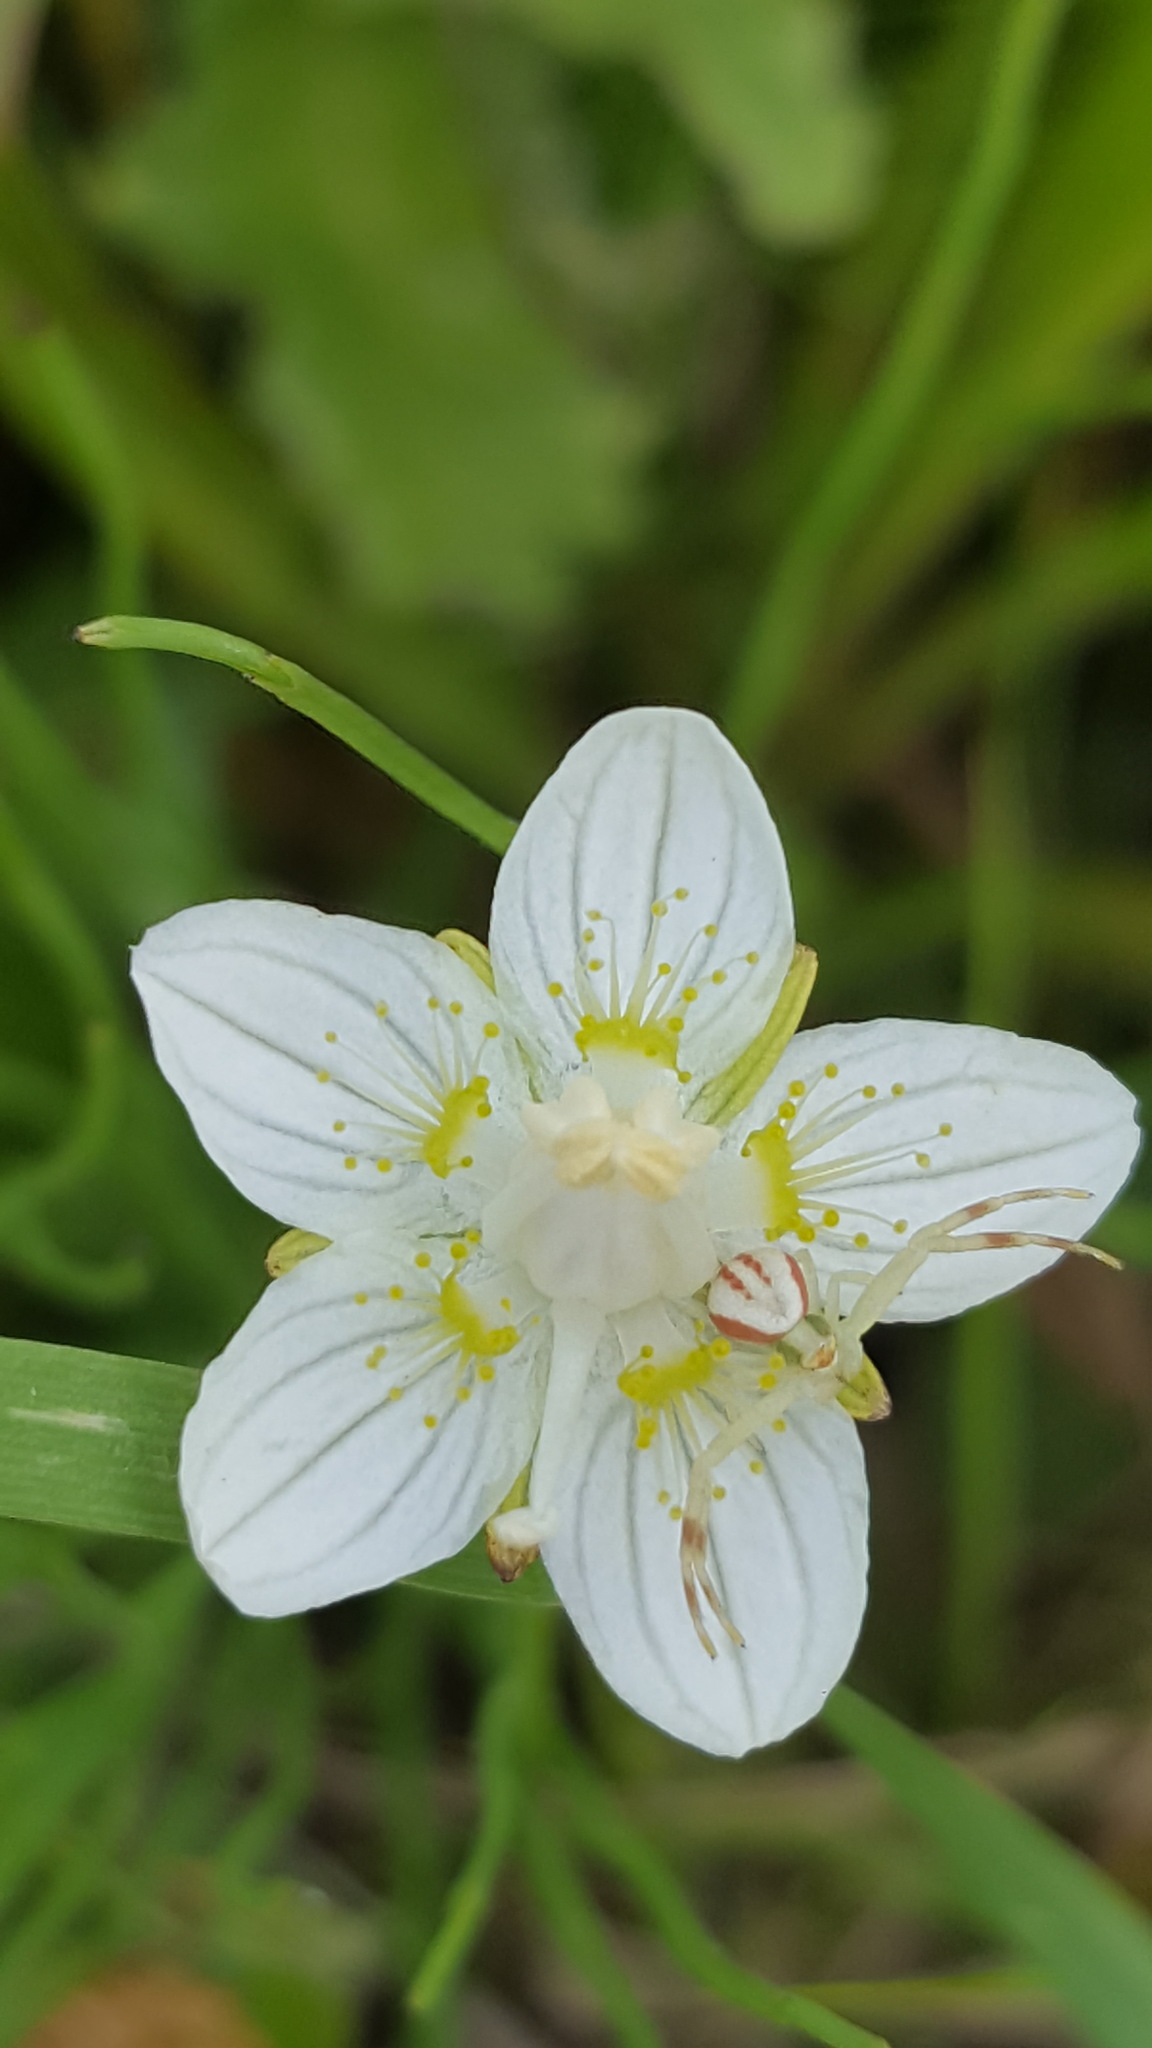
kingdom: Plantae
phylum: Tracheophyta
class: Magnoliopsida
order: Celastrales
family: Parnassiaceae
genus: Parnassia
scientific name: Parnassia palustris
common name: Grass-of-parnassus
